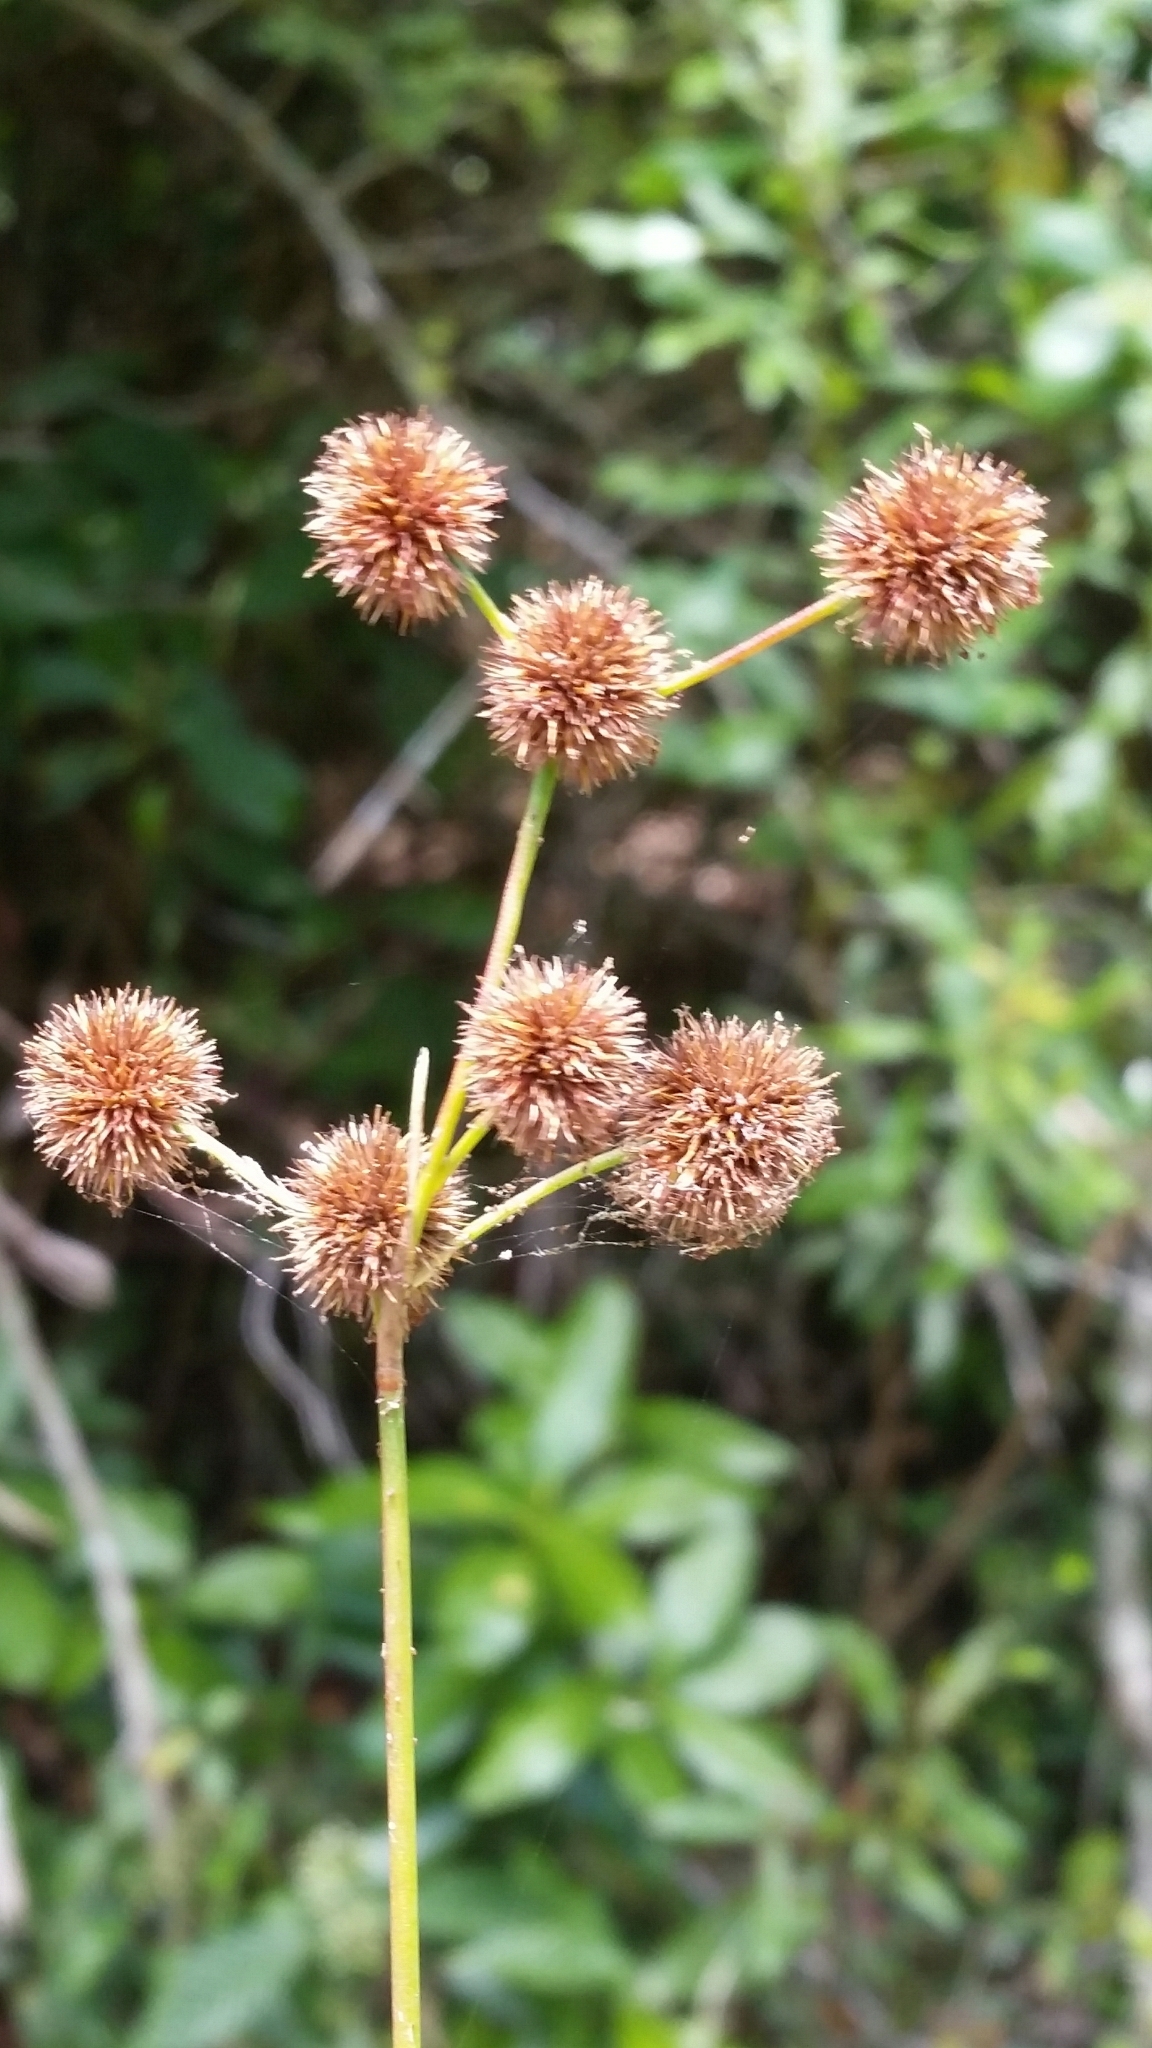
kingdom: Plantae
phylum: Tracheophyta
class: Liliopsida
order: Poales
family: Juncaceae
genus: Juncus
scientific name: Juncus megacephalus
